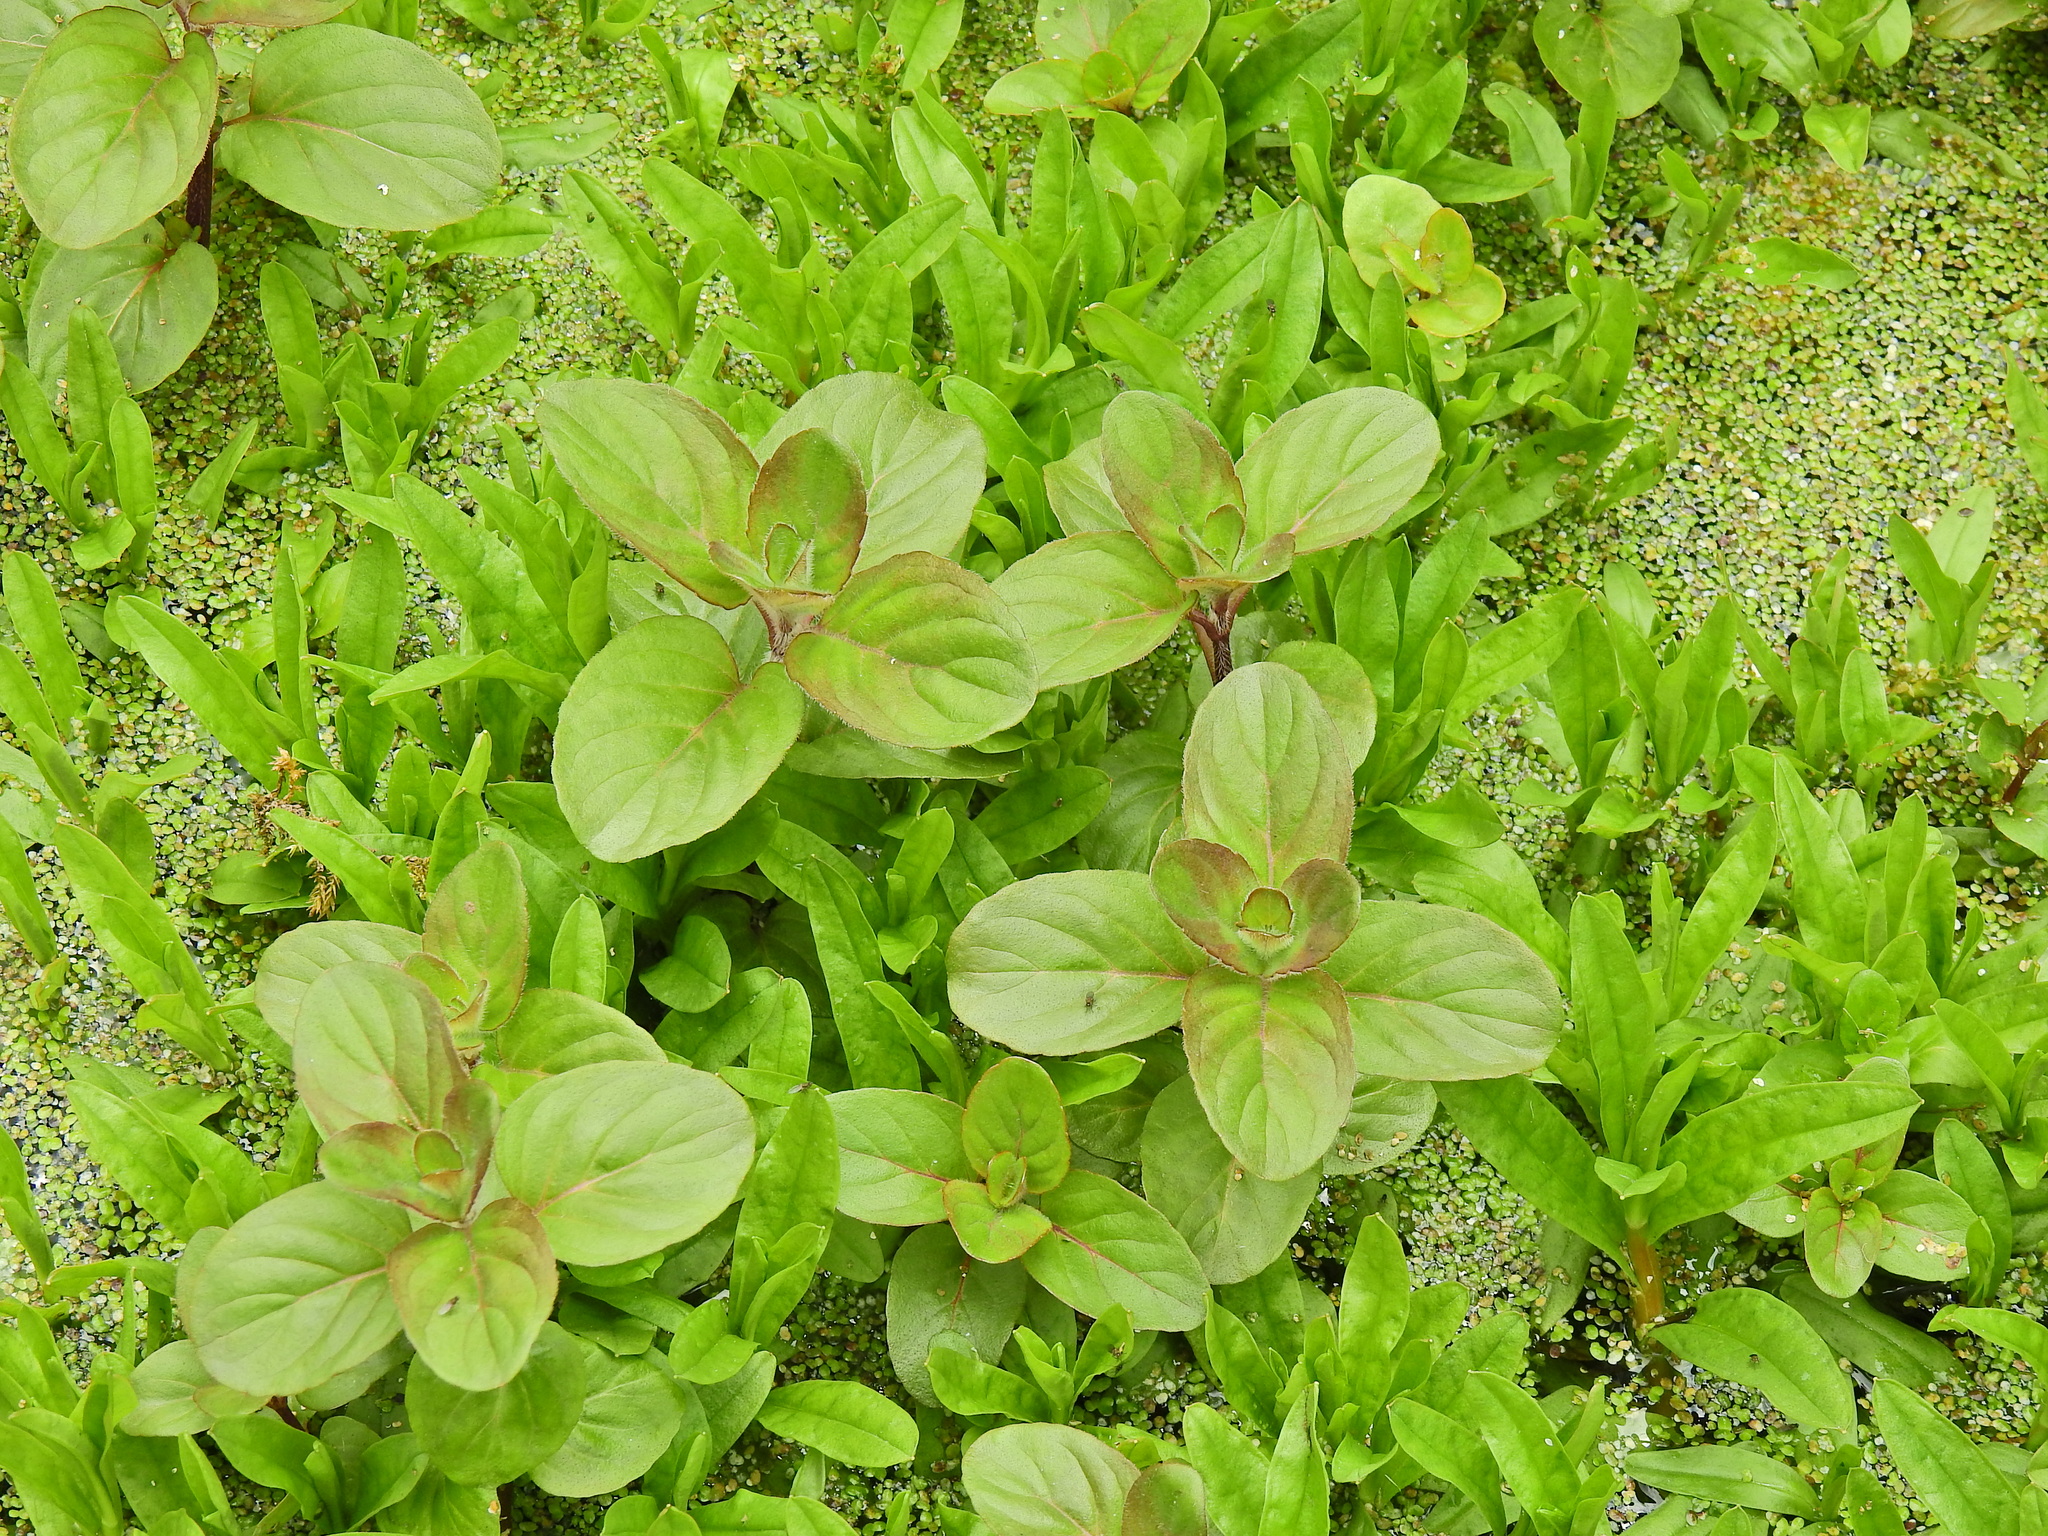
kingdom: Plantae
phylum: Tracheophyta
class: Magnoliopsida
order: Lamiales
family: Lamiaceae
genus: Mentha
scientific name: Mentha aquatica
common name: Water mint
